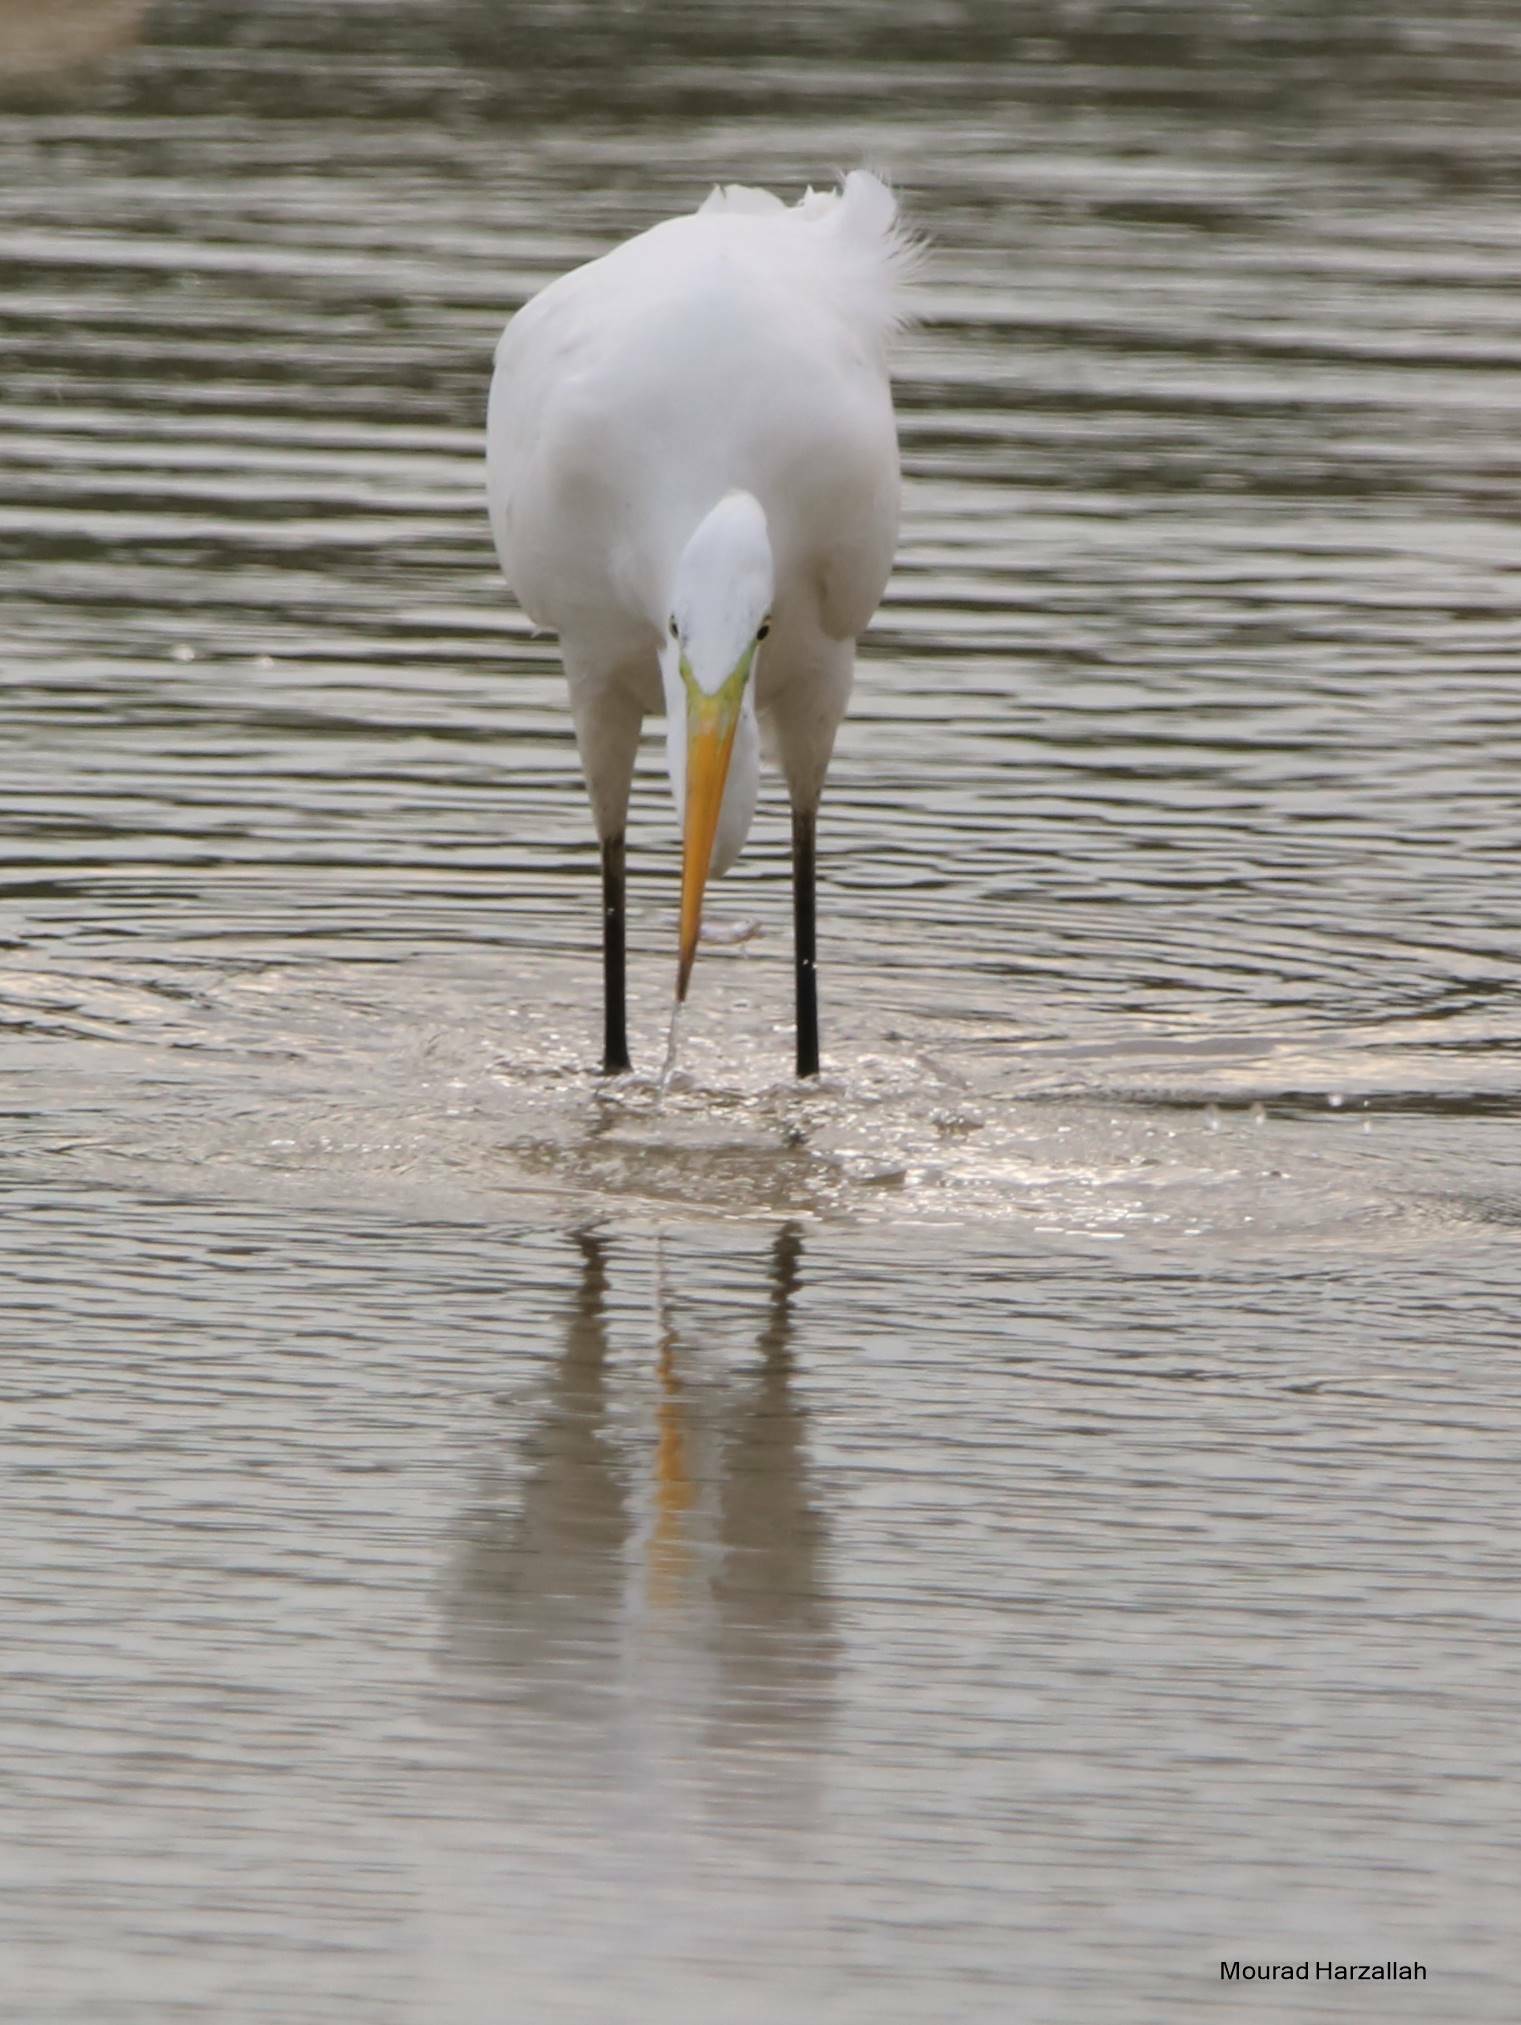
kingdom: Animalia
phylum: Chordata
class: Aves
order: Pelecaniformes
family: Ardeidae
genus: Ardea
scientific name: Ardea alba
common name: Great egret
